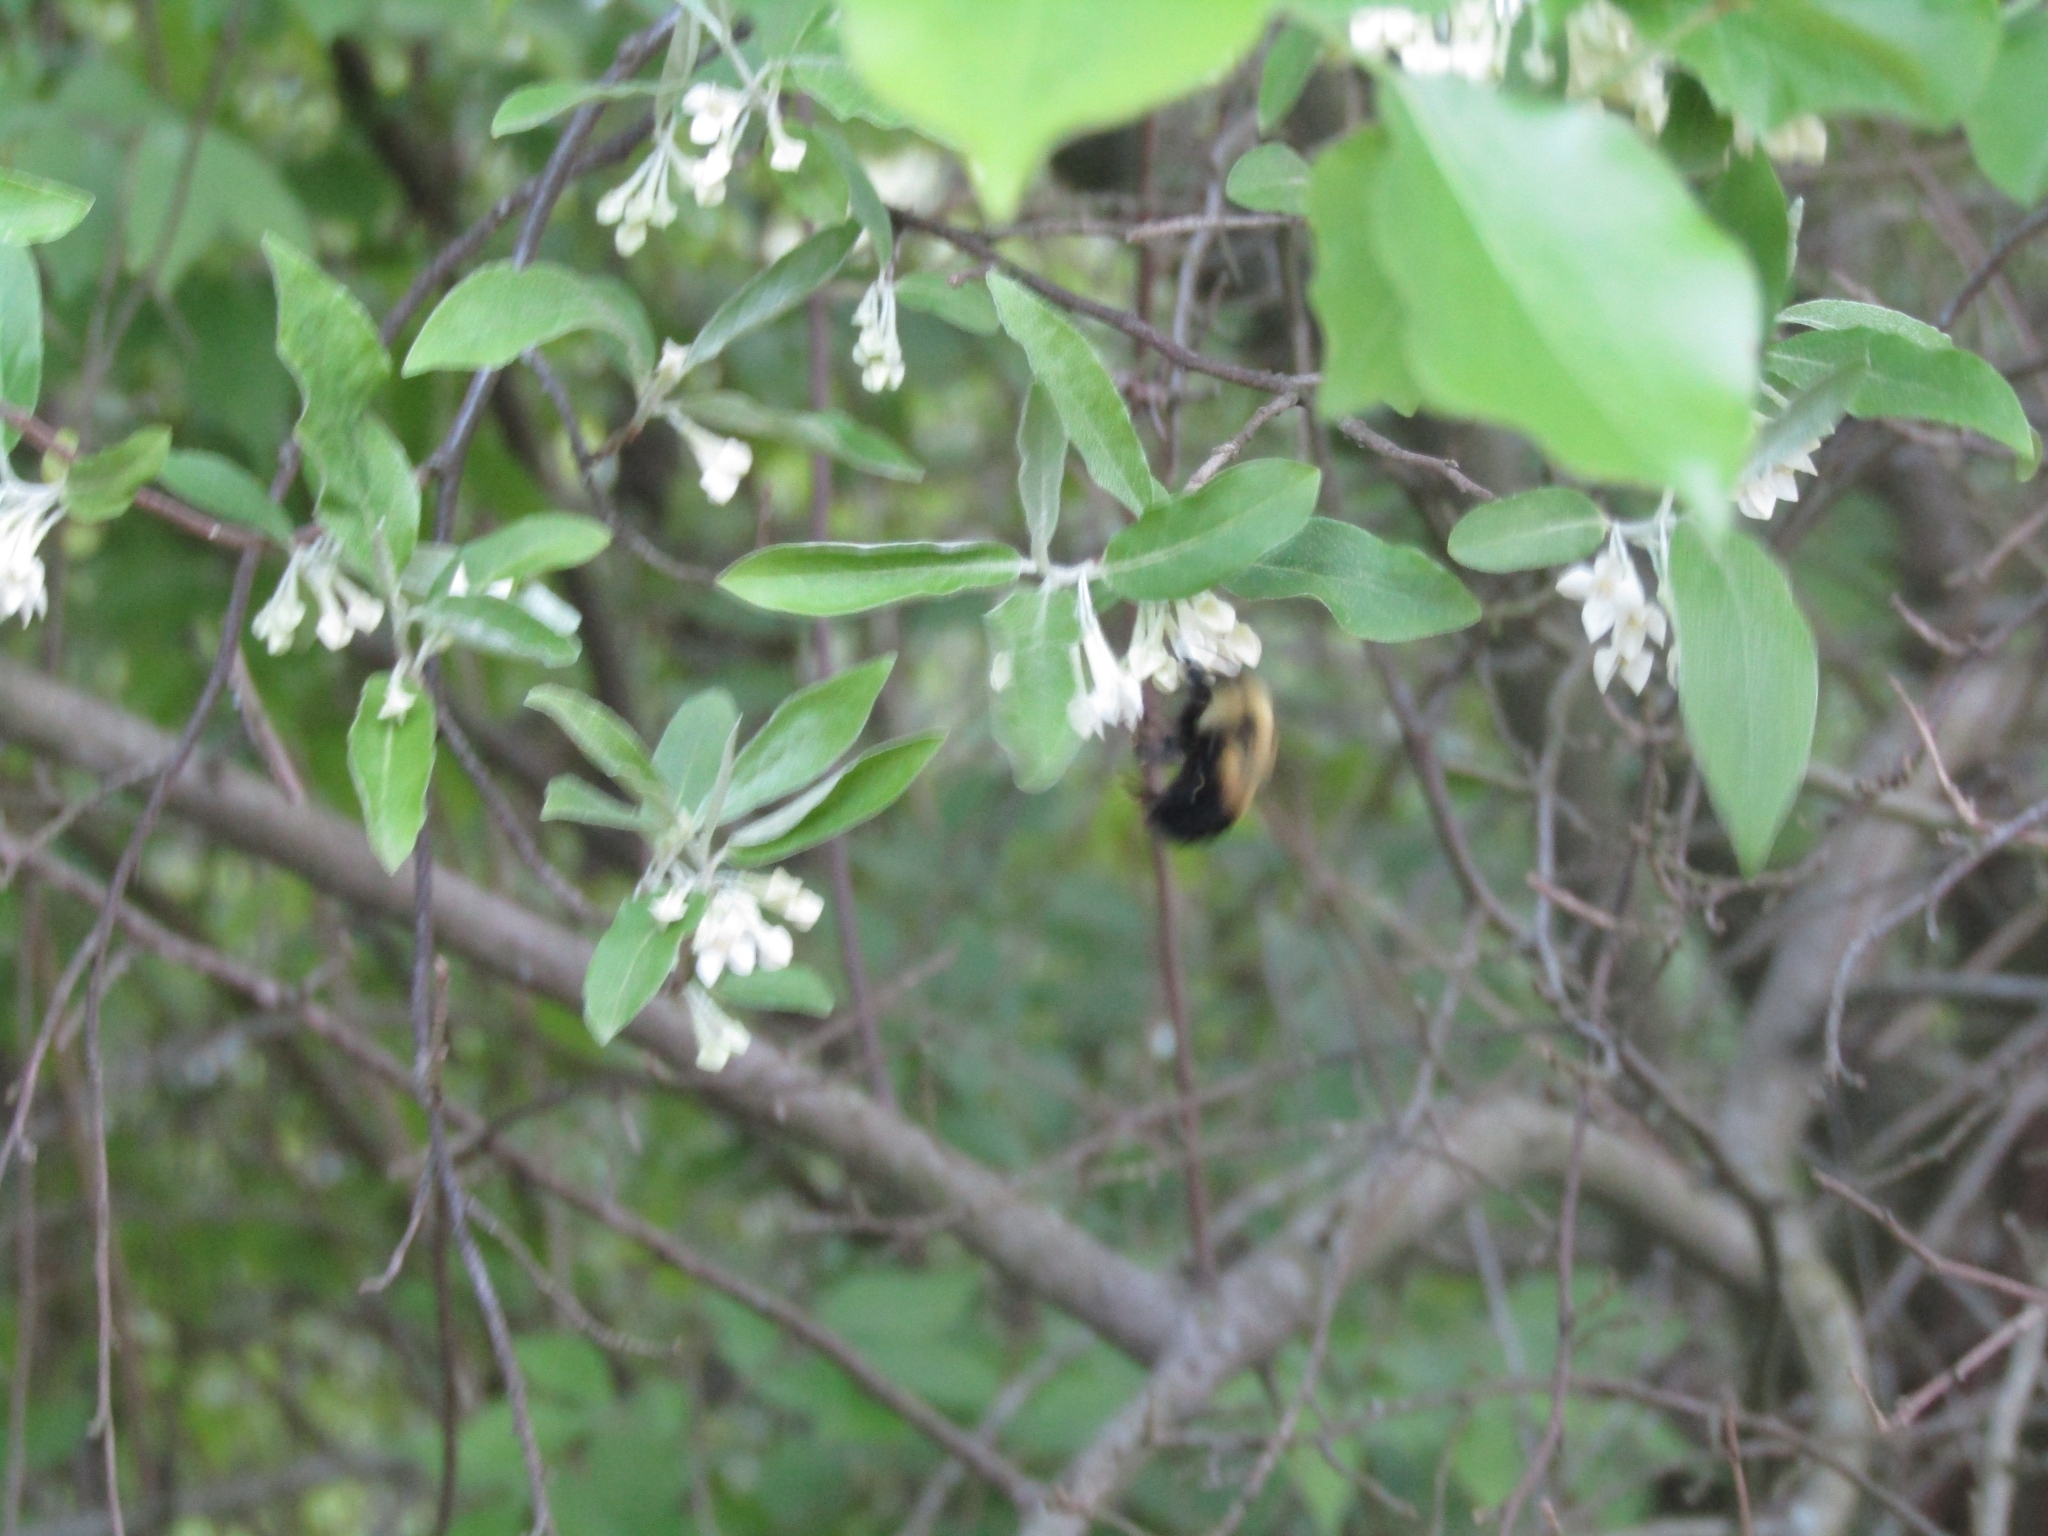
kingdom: Animalia
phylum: Arthropoda
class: Insecta
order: Hymenoptera
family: Apidae
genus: Bombus
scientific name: Bombus griseocollis
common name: Brown-belted bumble bee
